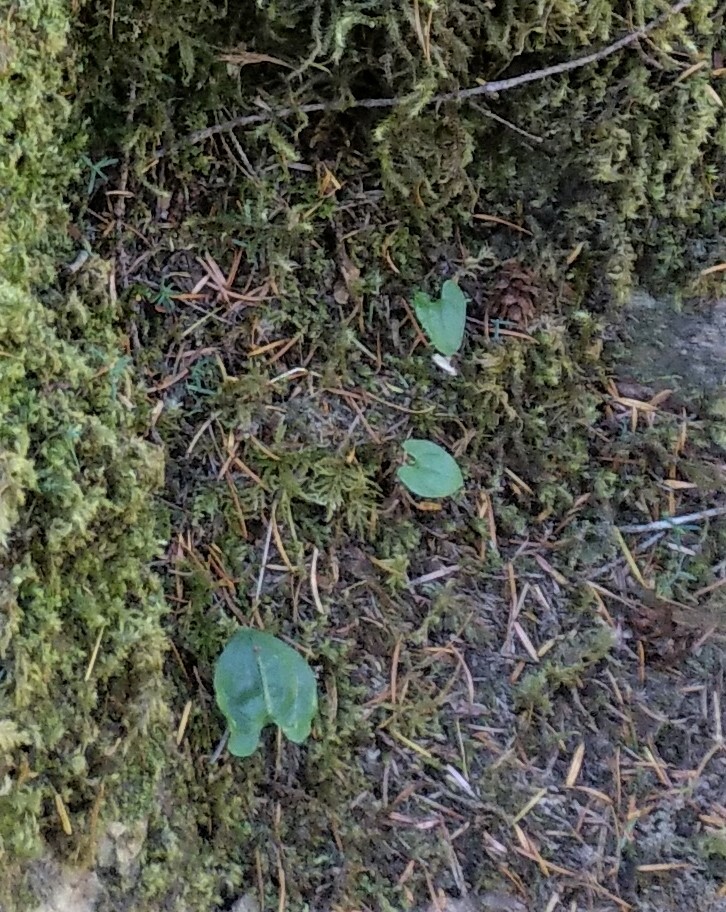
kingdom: Plantae
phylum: Tracheophyta
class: Liliopsida
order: Asparagales
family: Asparagaceae
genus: Maianthemum
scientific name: Maianthemum dilatatum
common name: False lily-of-the-valley
